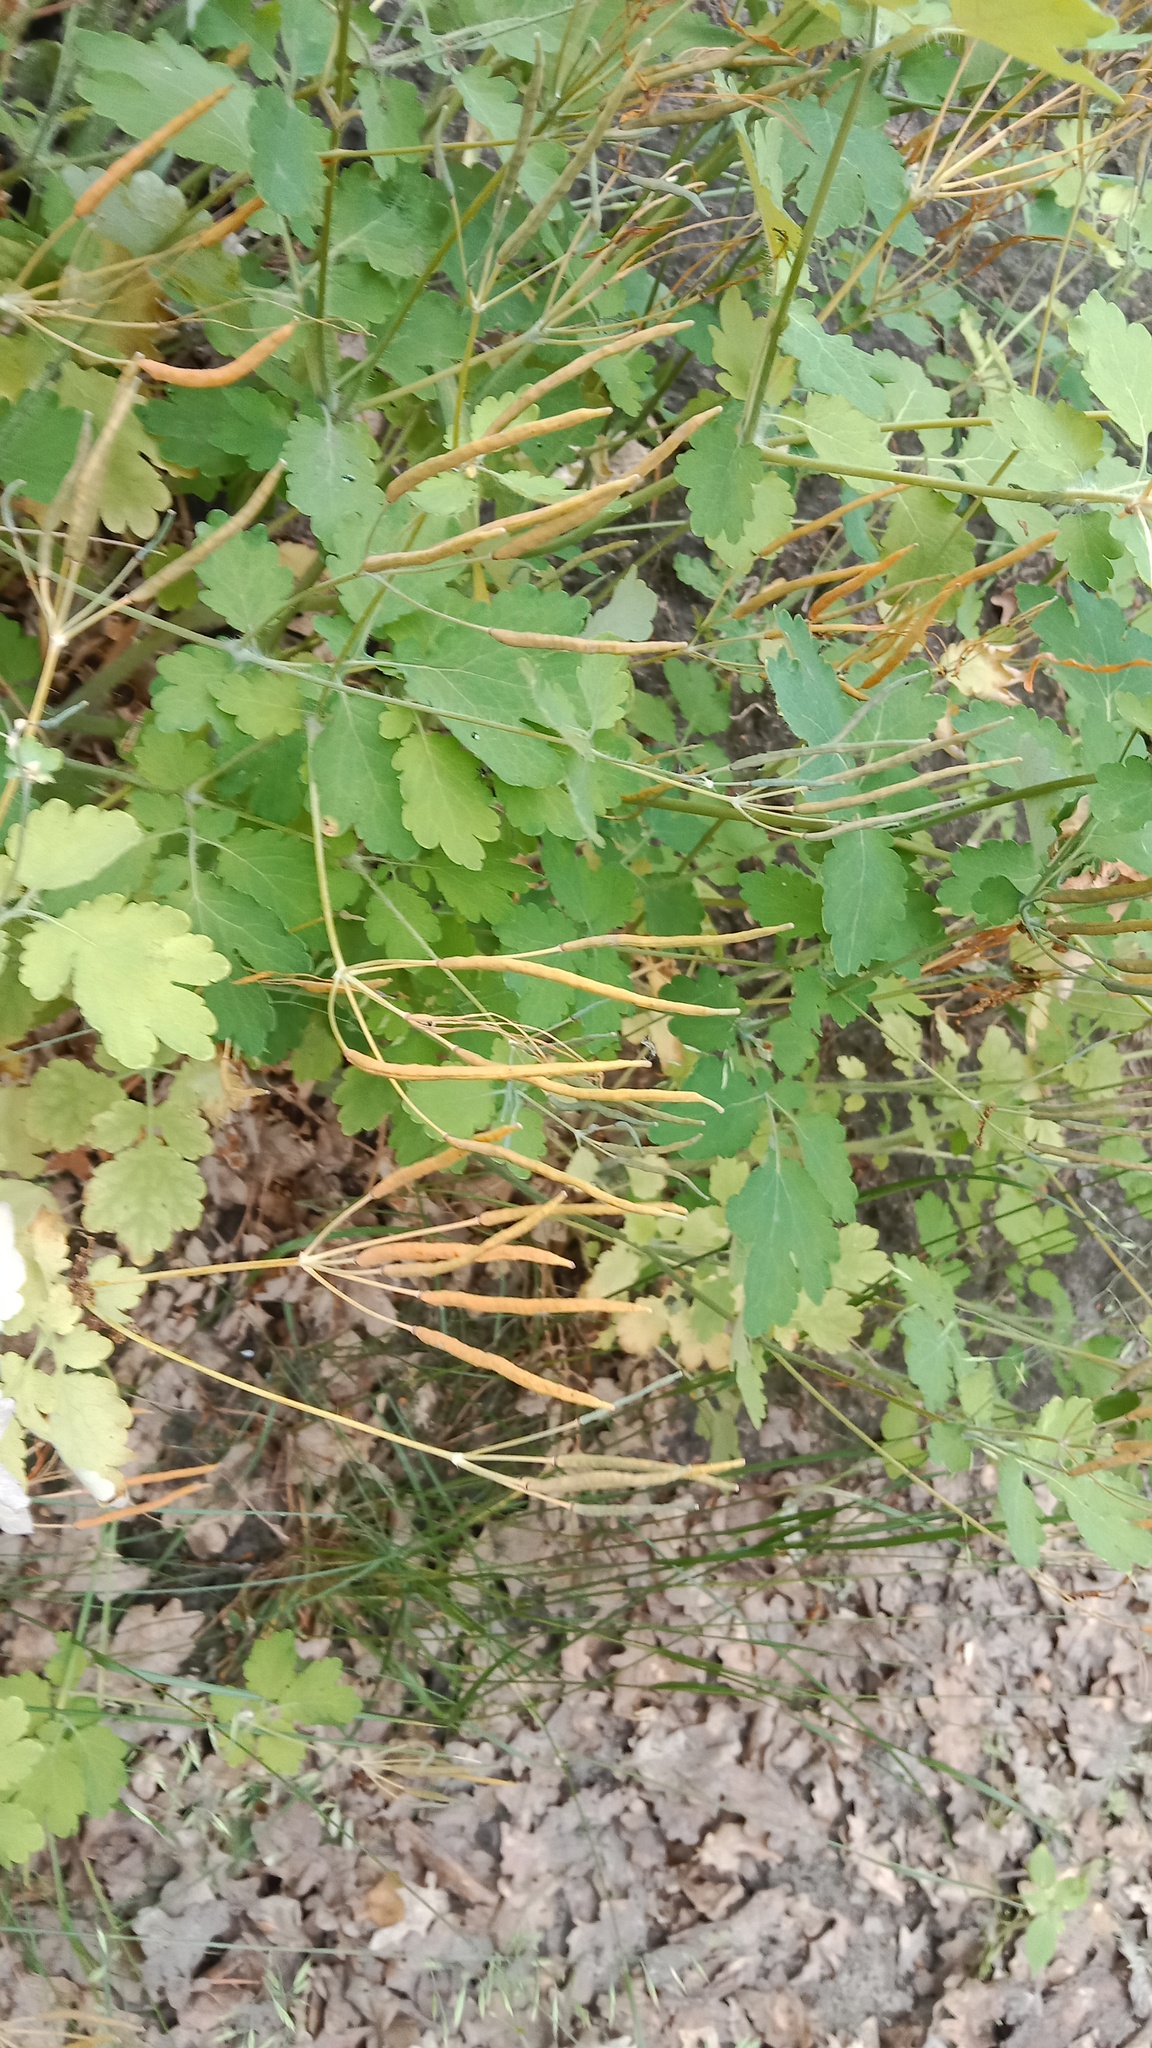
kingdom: Plantae
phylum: Tracheophyta
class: Magnoliopsida
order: Ranunculales
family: Papaveraceae
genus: Chelidonium
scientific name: Chelidonium majus
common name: Greater celandine
